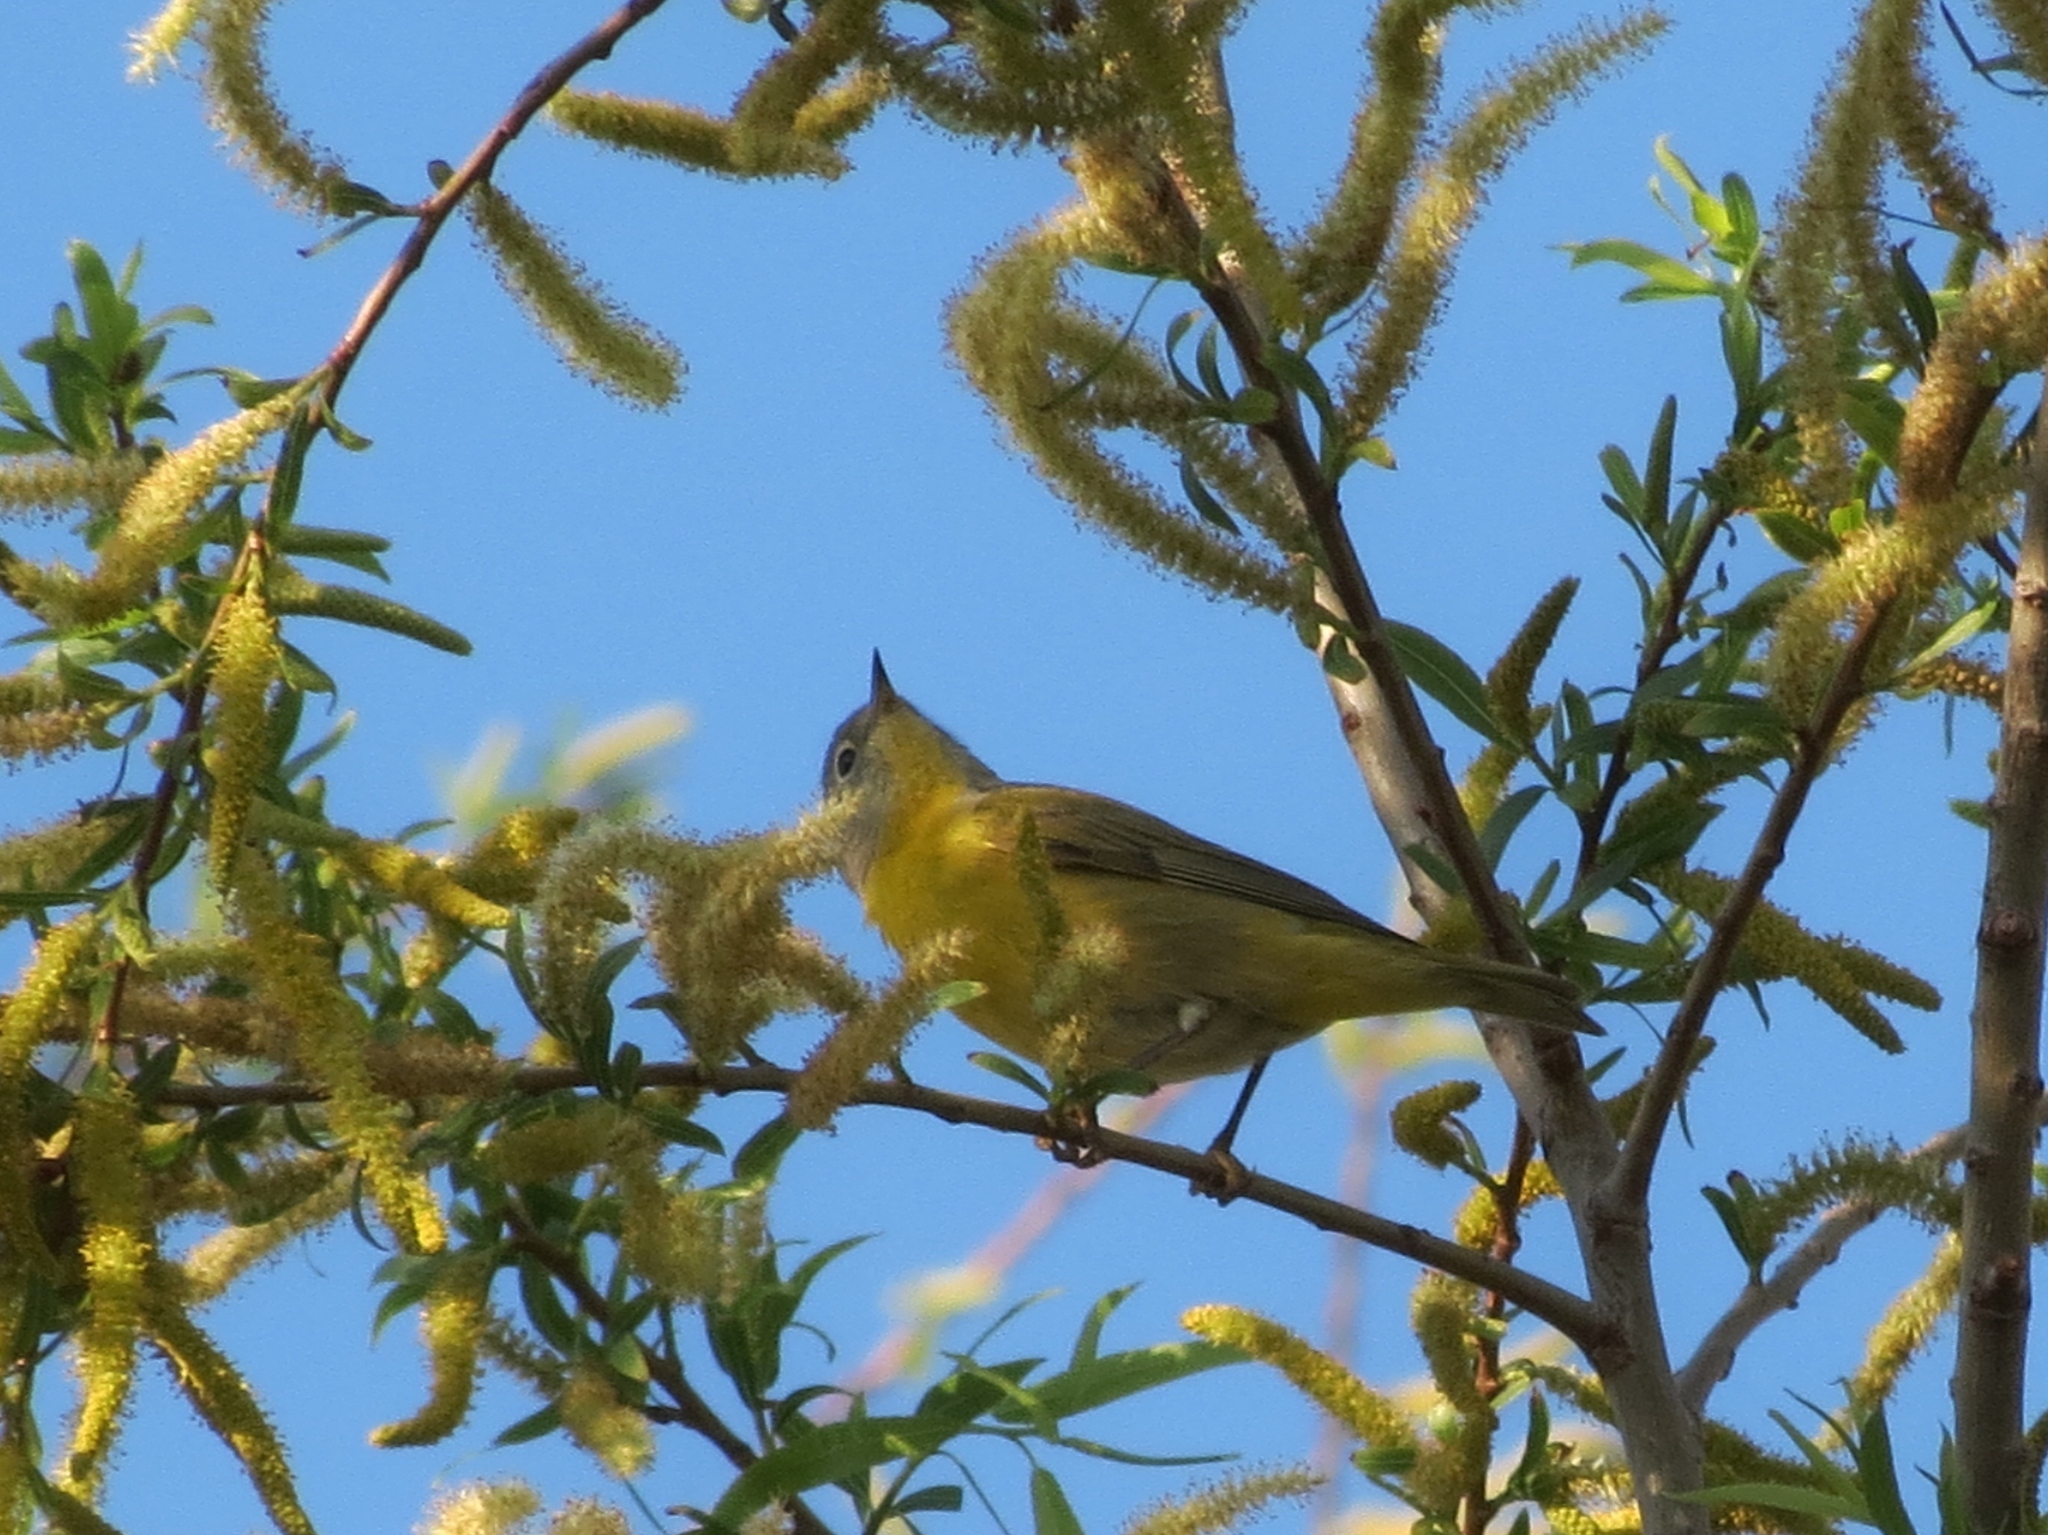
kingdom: Animalia
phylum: Chordata
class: Aves
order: Passeriformes
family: Parulidae
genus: Leiothlypis
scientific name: Leiothlypis ruficapilla
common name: Nashville warbler
